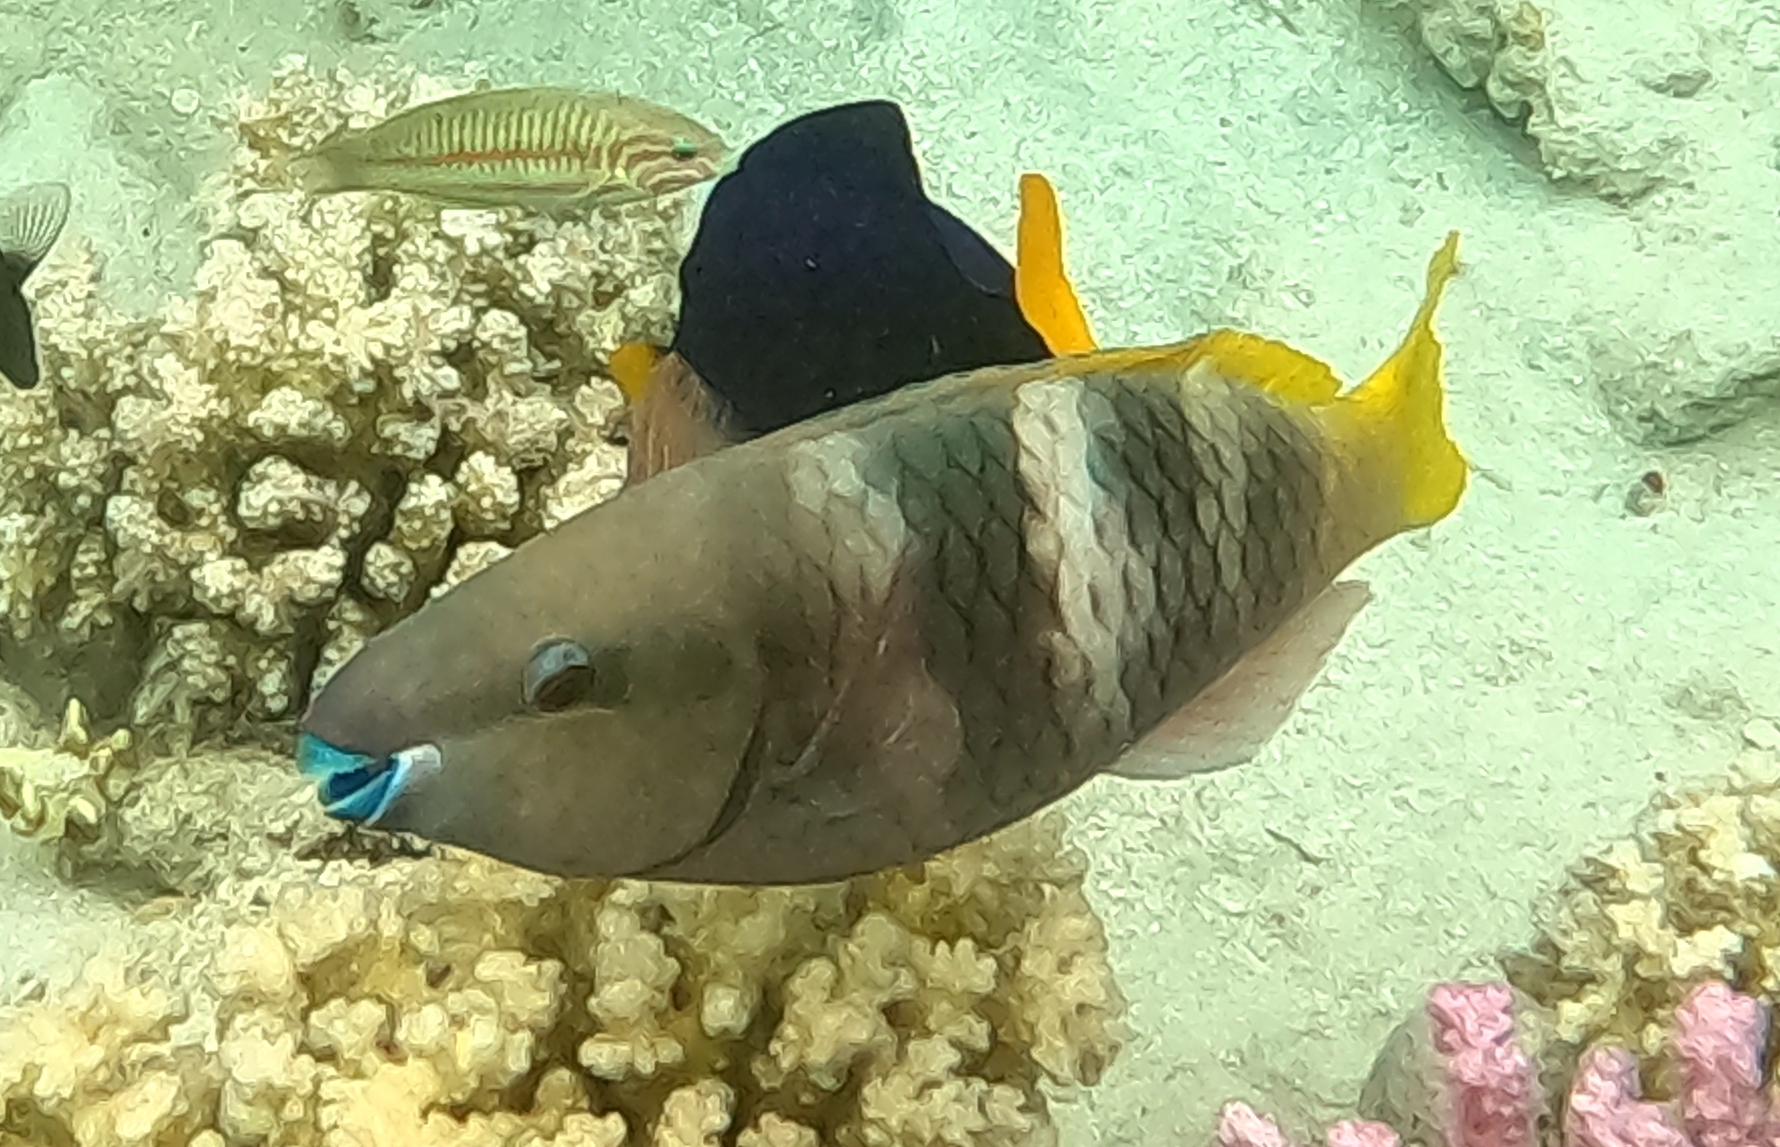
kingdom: Animalia
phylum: Chordata
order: Perciformes
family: Scaridae
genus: Scarus
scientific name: Scarus ferrugineus
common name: Rusty parrotfish
